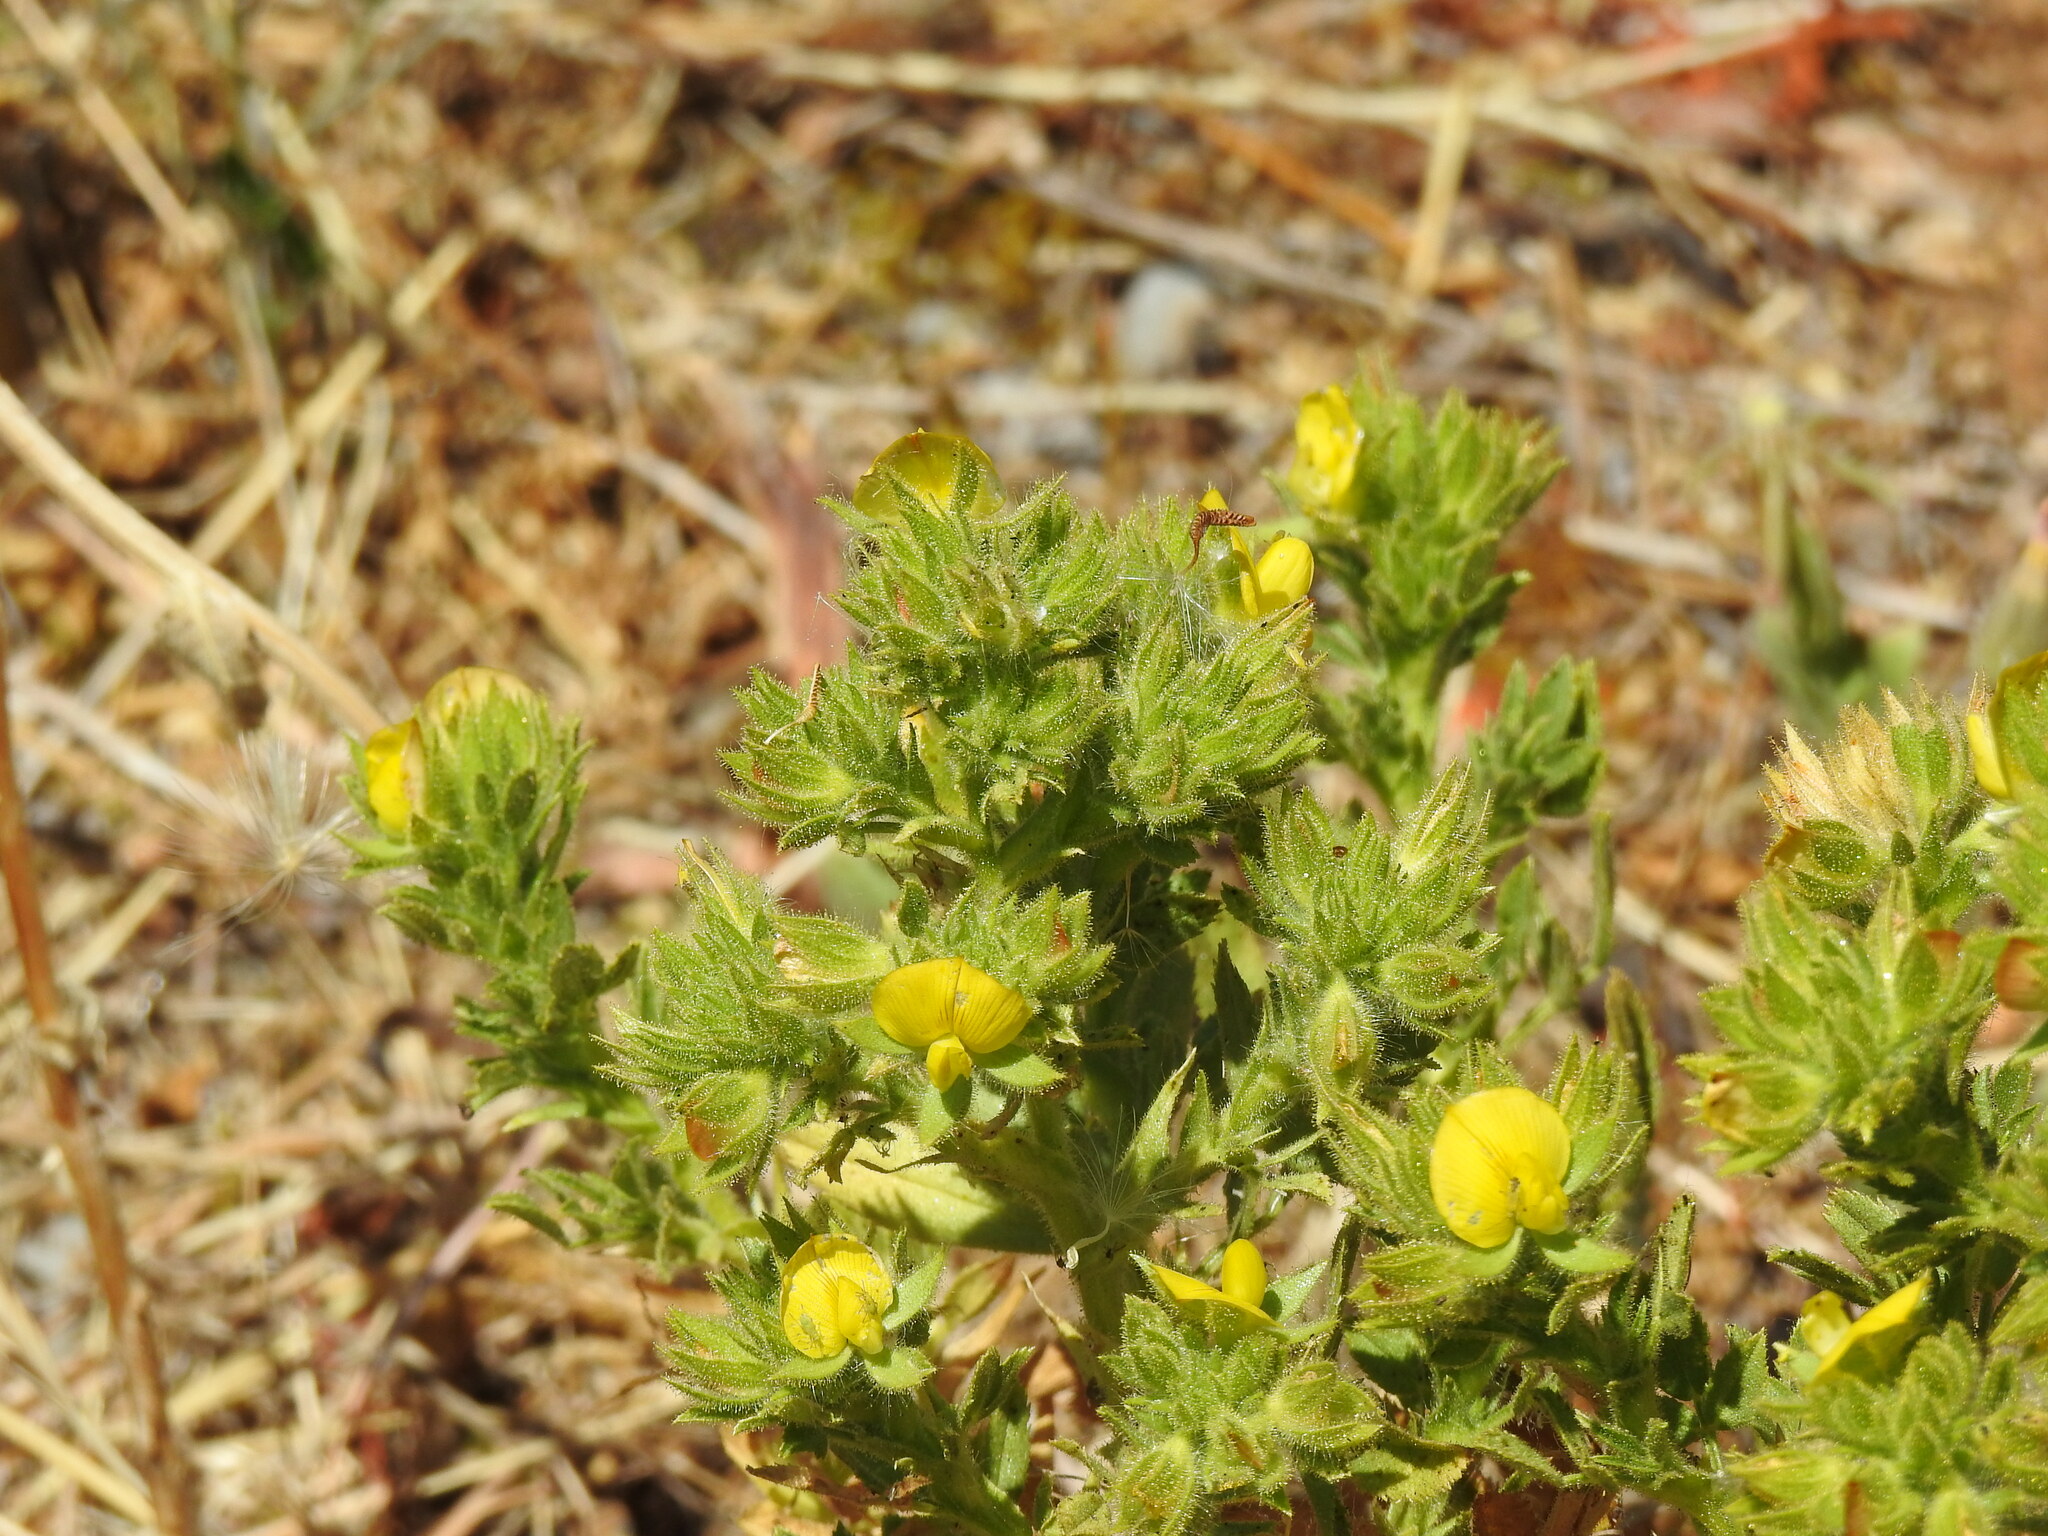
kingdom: Plantae
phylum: Tracheophyta
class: Magnoliopsida
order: Fabales
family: Fabaceae
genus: Ononis
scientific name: Ononis pubescens
